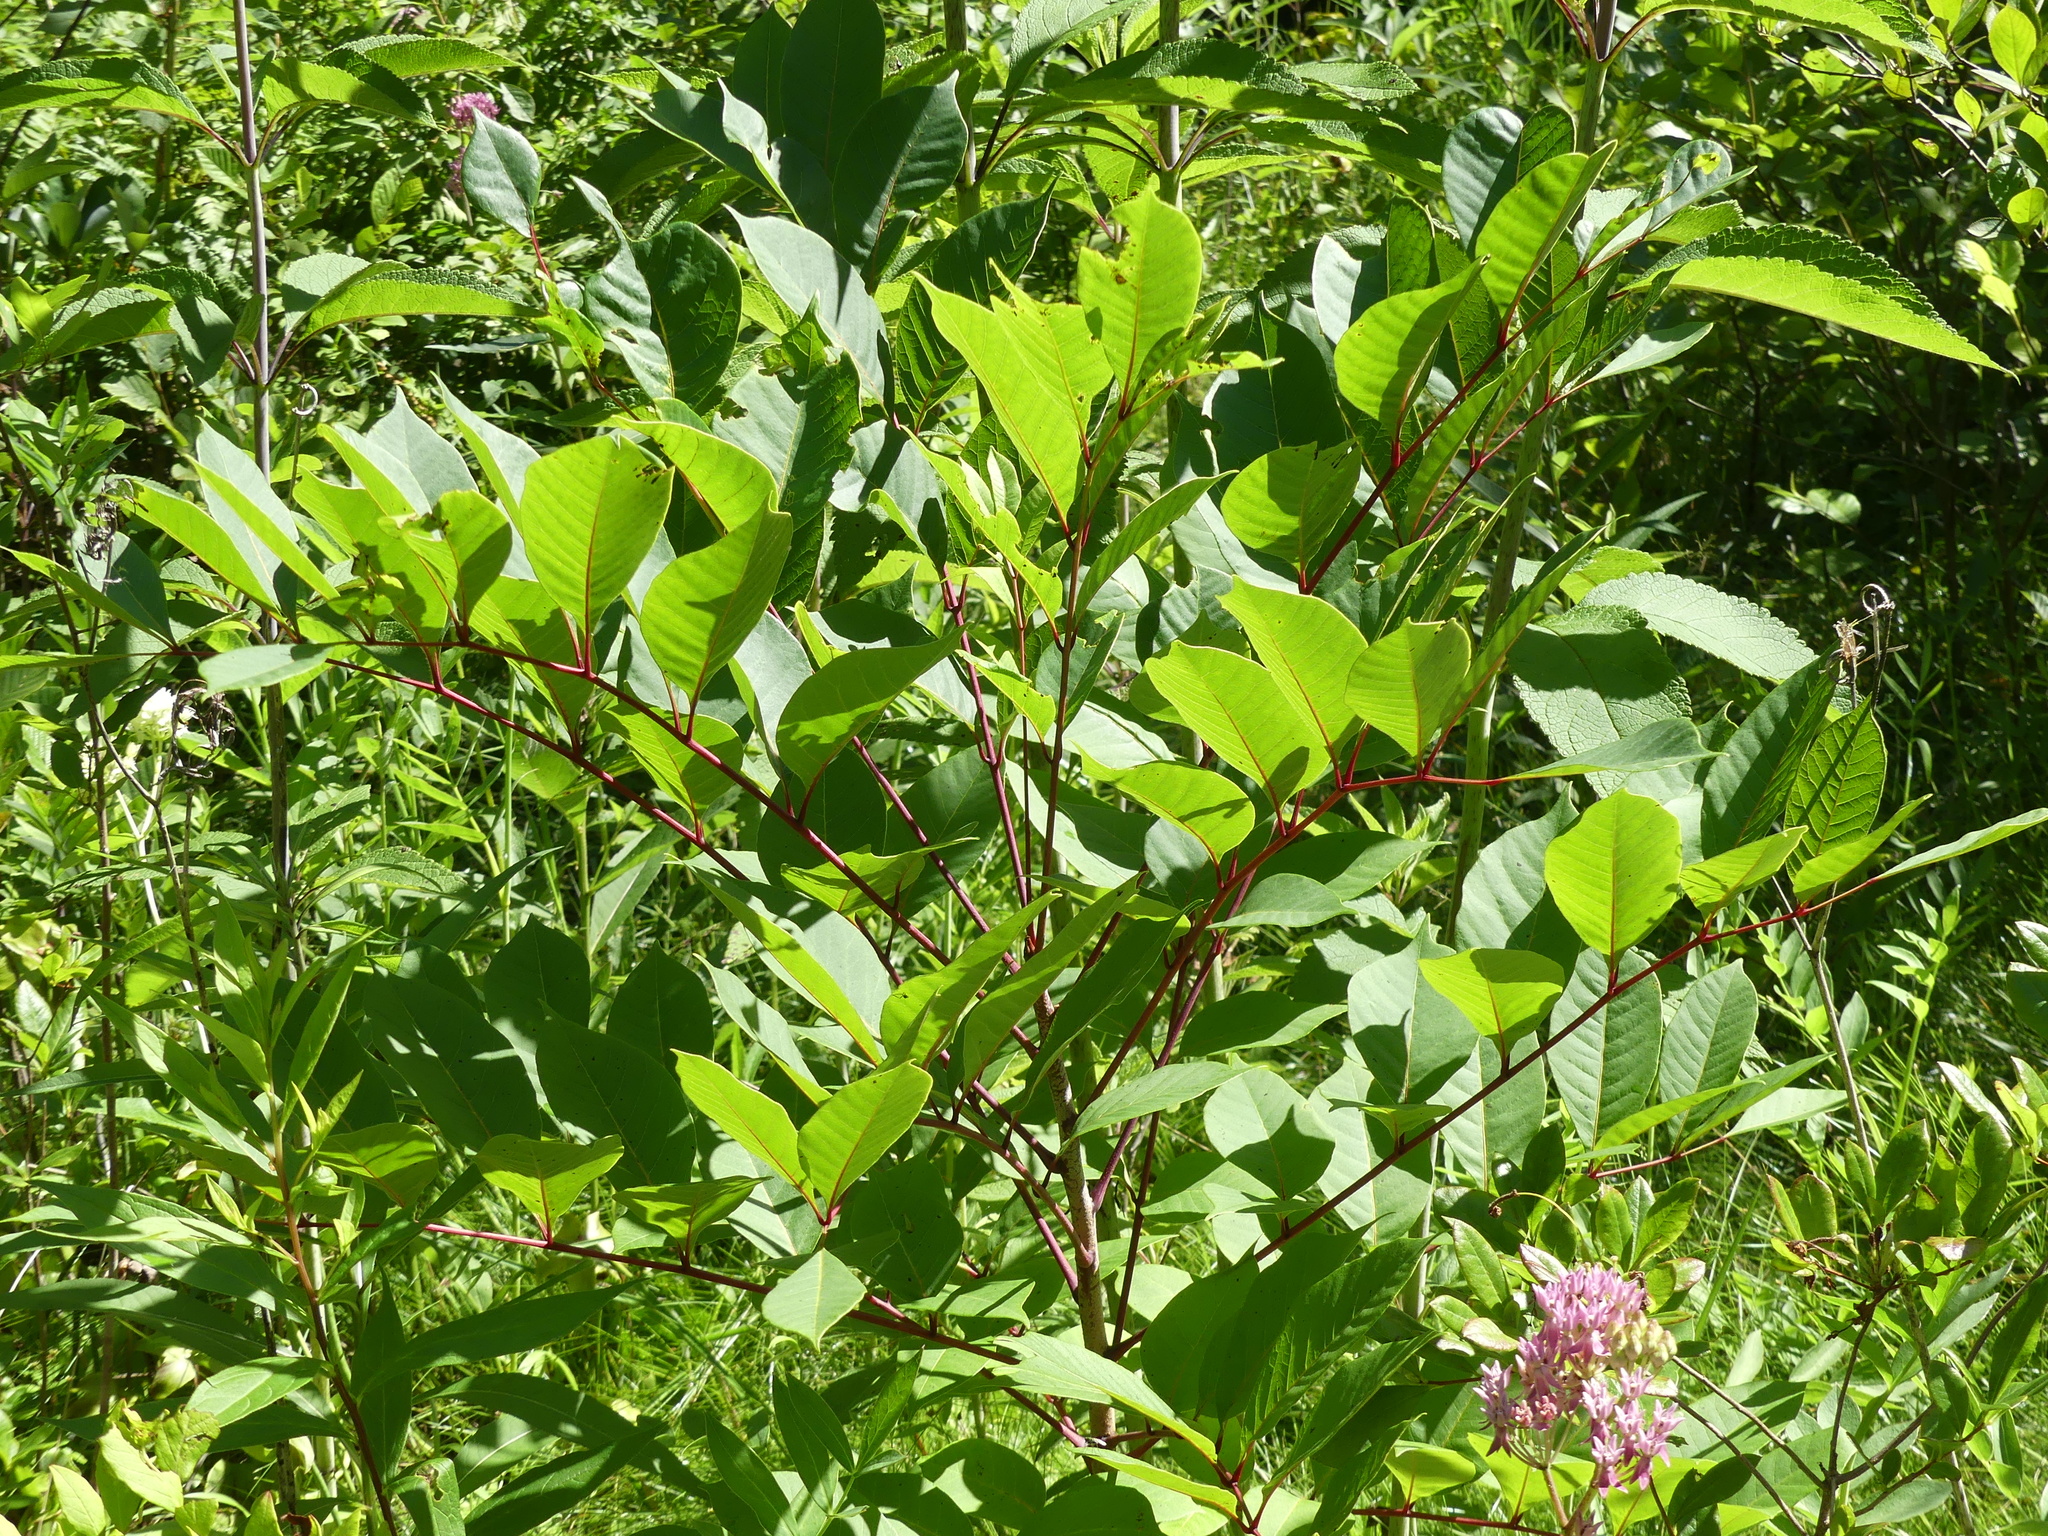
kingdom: Plantae
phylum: Tracheophyta
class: Magnoliopsida
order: Sapindales
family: Anacardiaceae
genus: Toxicodendron
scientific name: Toxicodendron vernix
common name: Poison sumac
